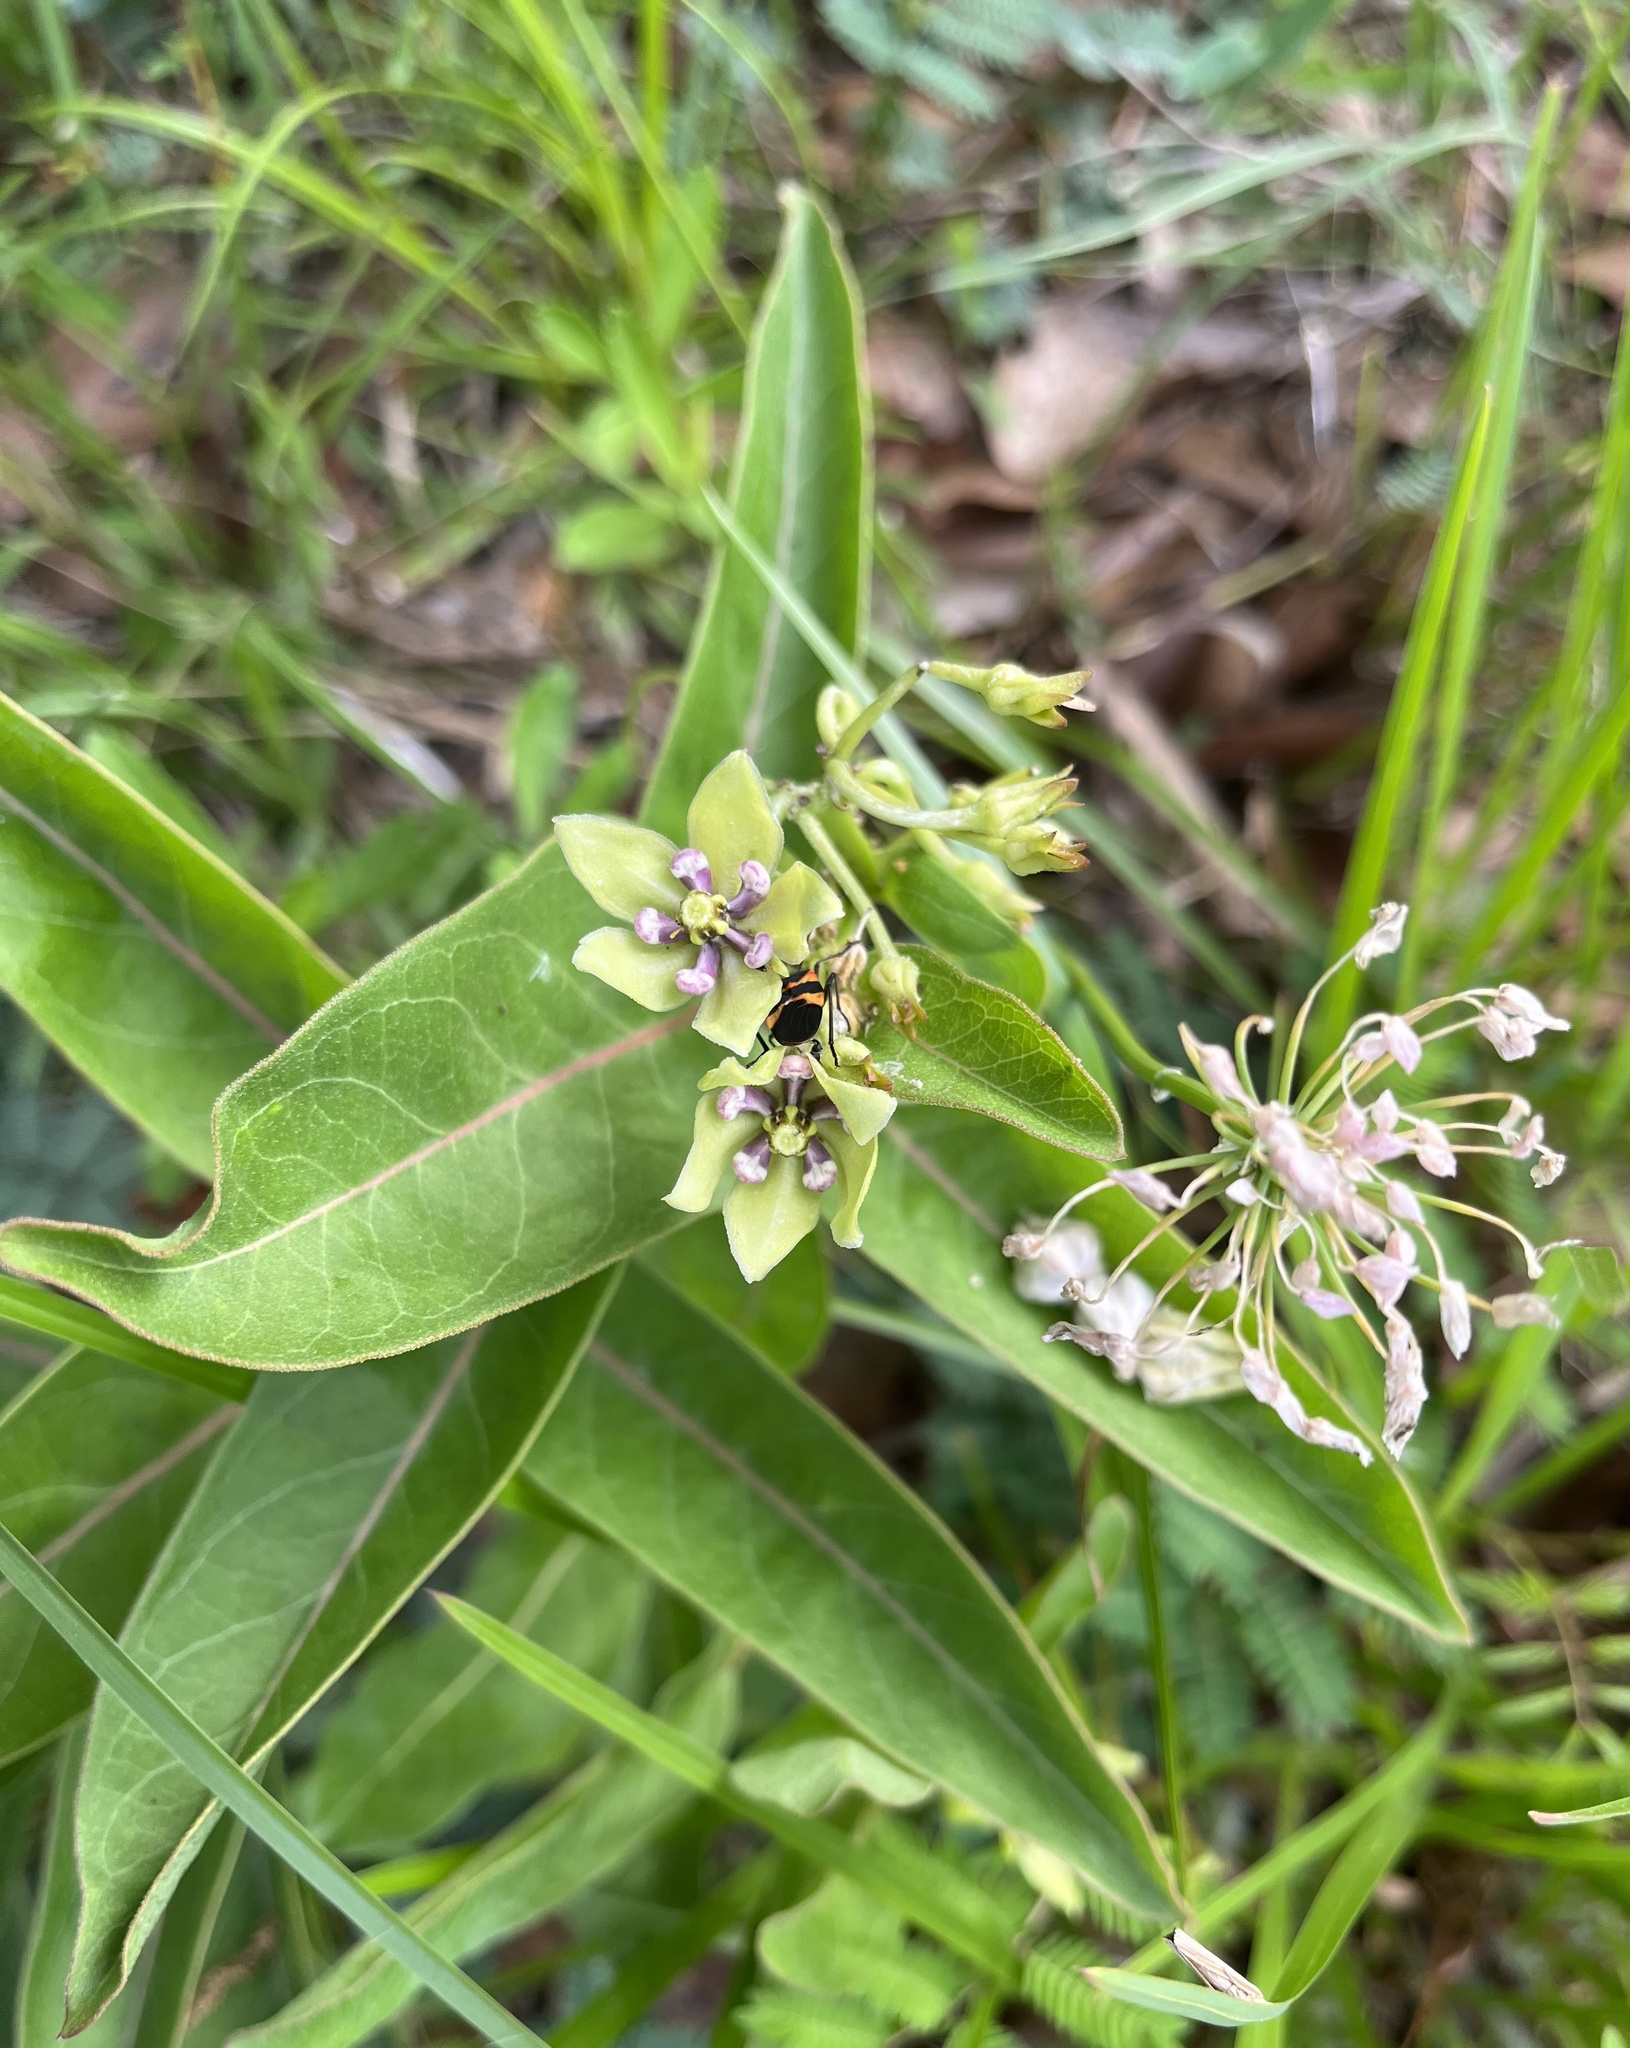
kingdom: Plantae
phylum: Tracheophyta
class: Magnoliopsida
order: Gentianales
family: Apocynaceae
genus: Asclepias
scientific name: Asclepias viridis
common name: Antelope-horns
